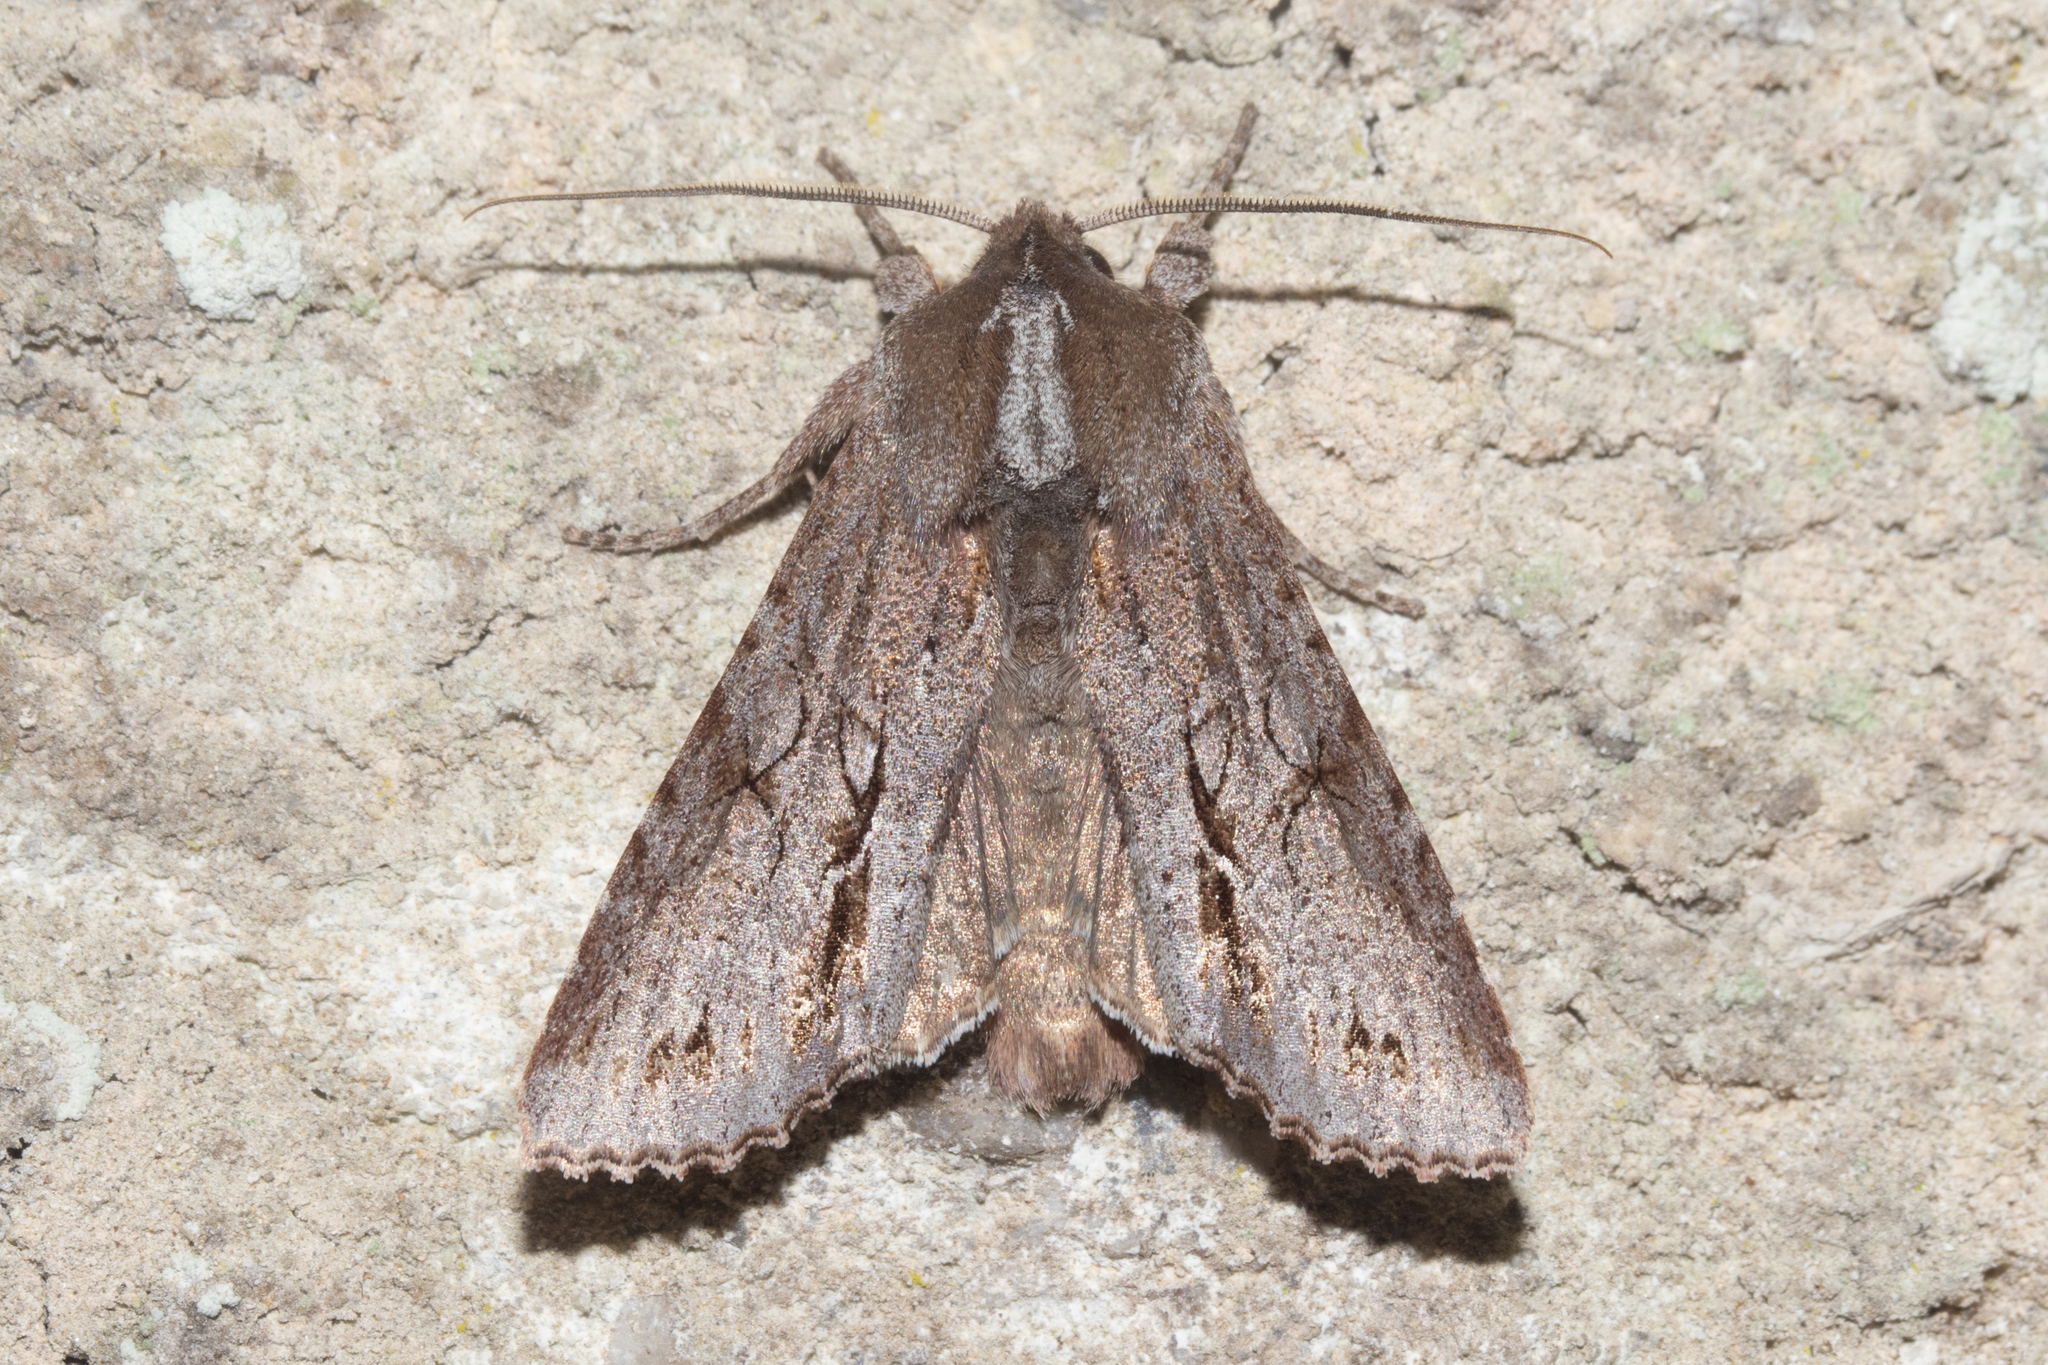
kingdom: Animalia
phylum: Arthropoda
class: Insecta
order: Lepidoptera
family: Noctuidae
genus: Ichneutica
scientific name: Ichneutica
